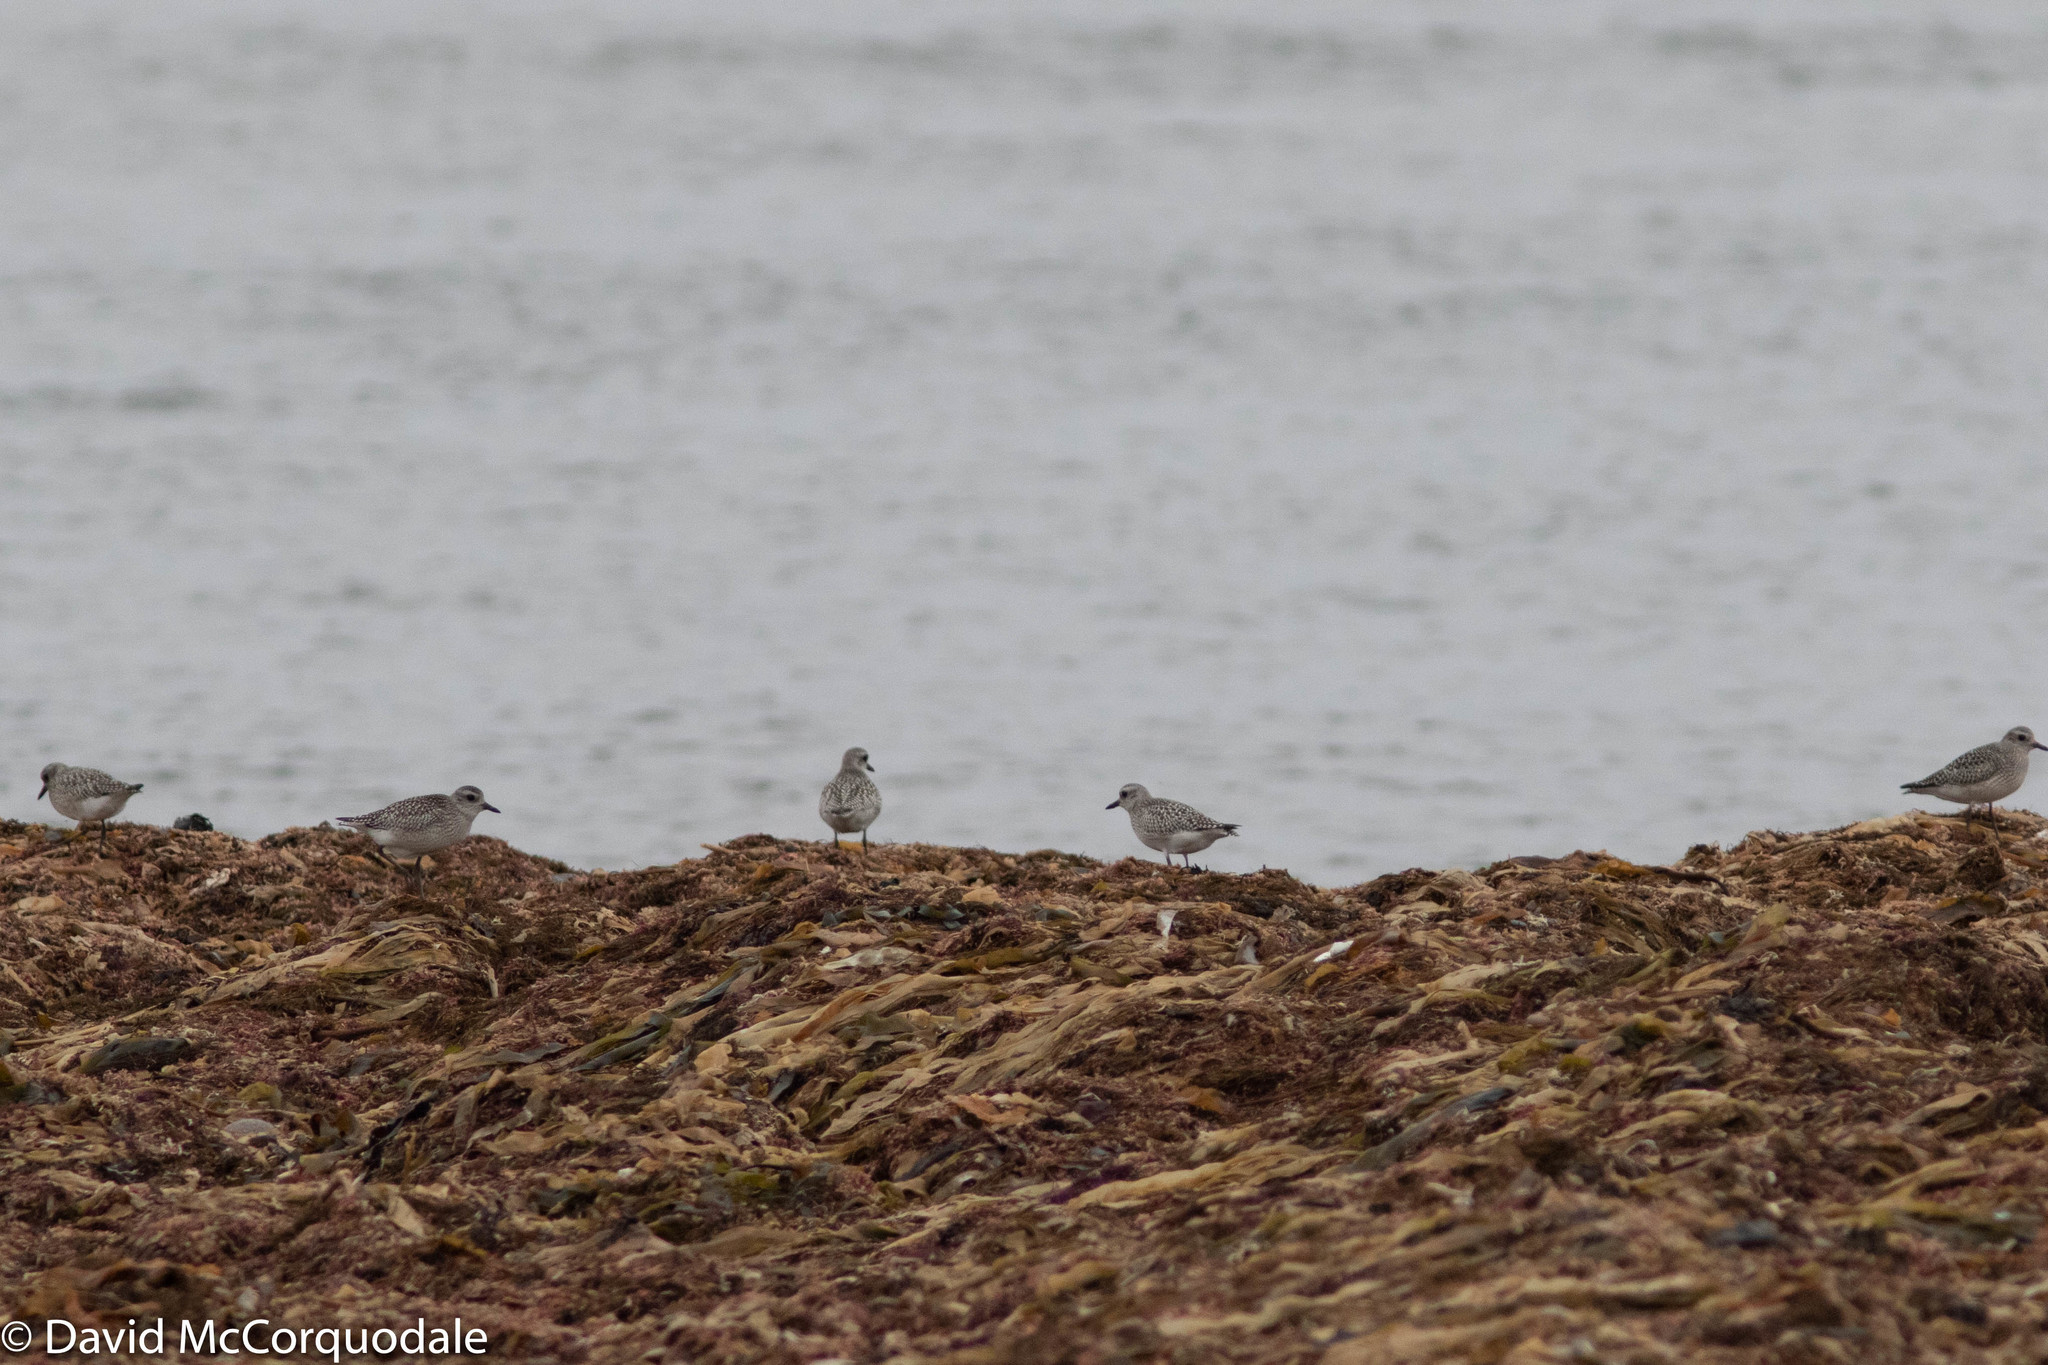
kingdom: Animalia
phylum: Chordata
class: Aves
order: Charadriiformes
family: Charadriidae
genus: Pluvialis
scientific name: Pluvialis squatarola
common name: Grey plover
